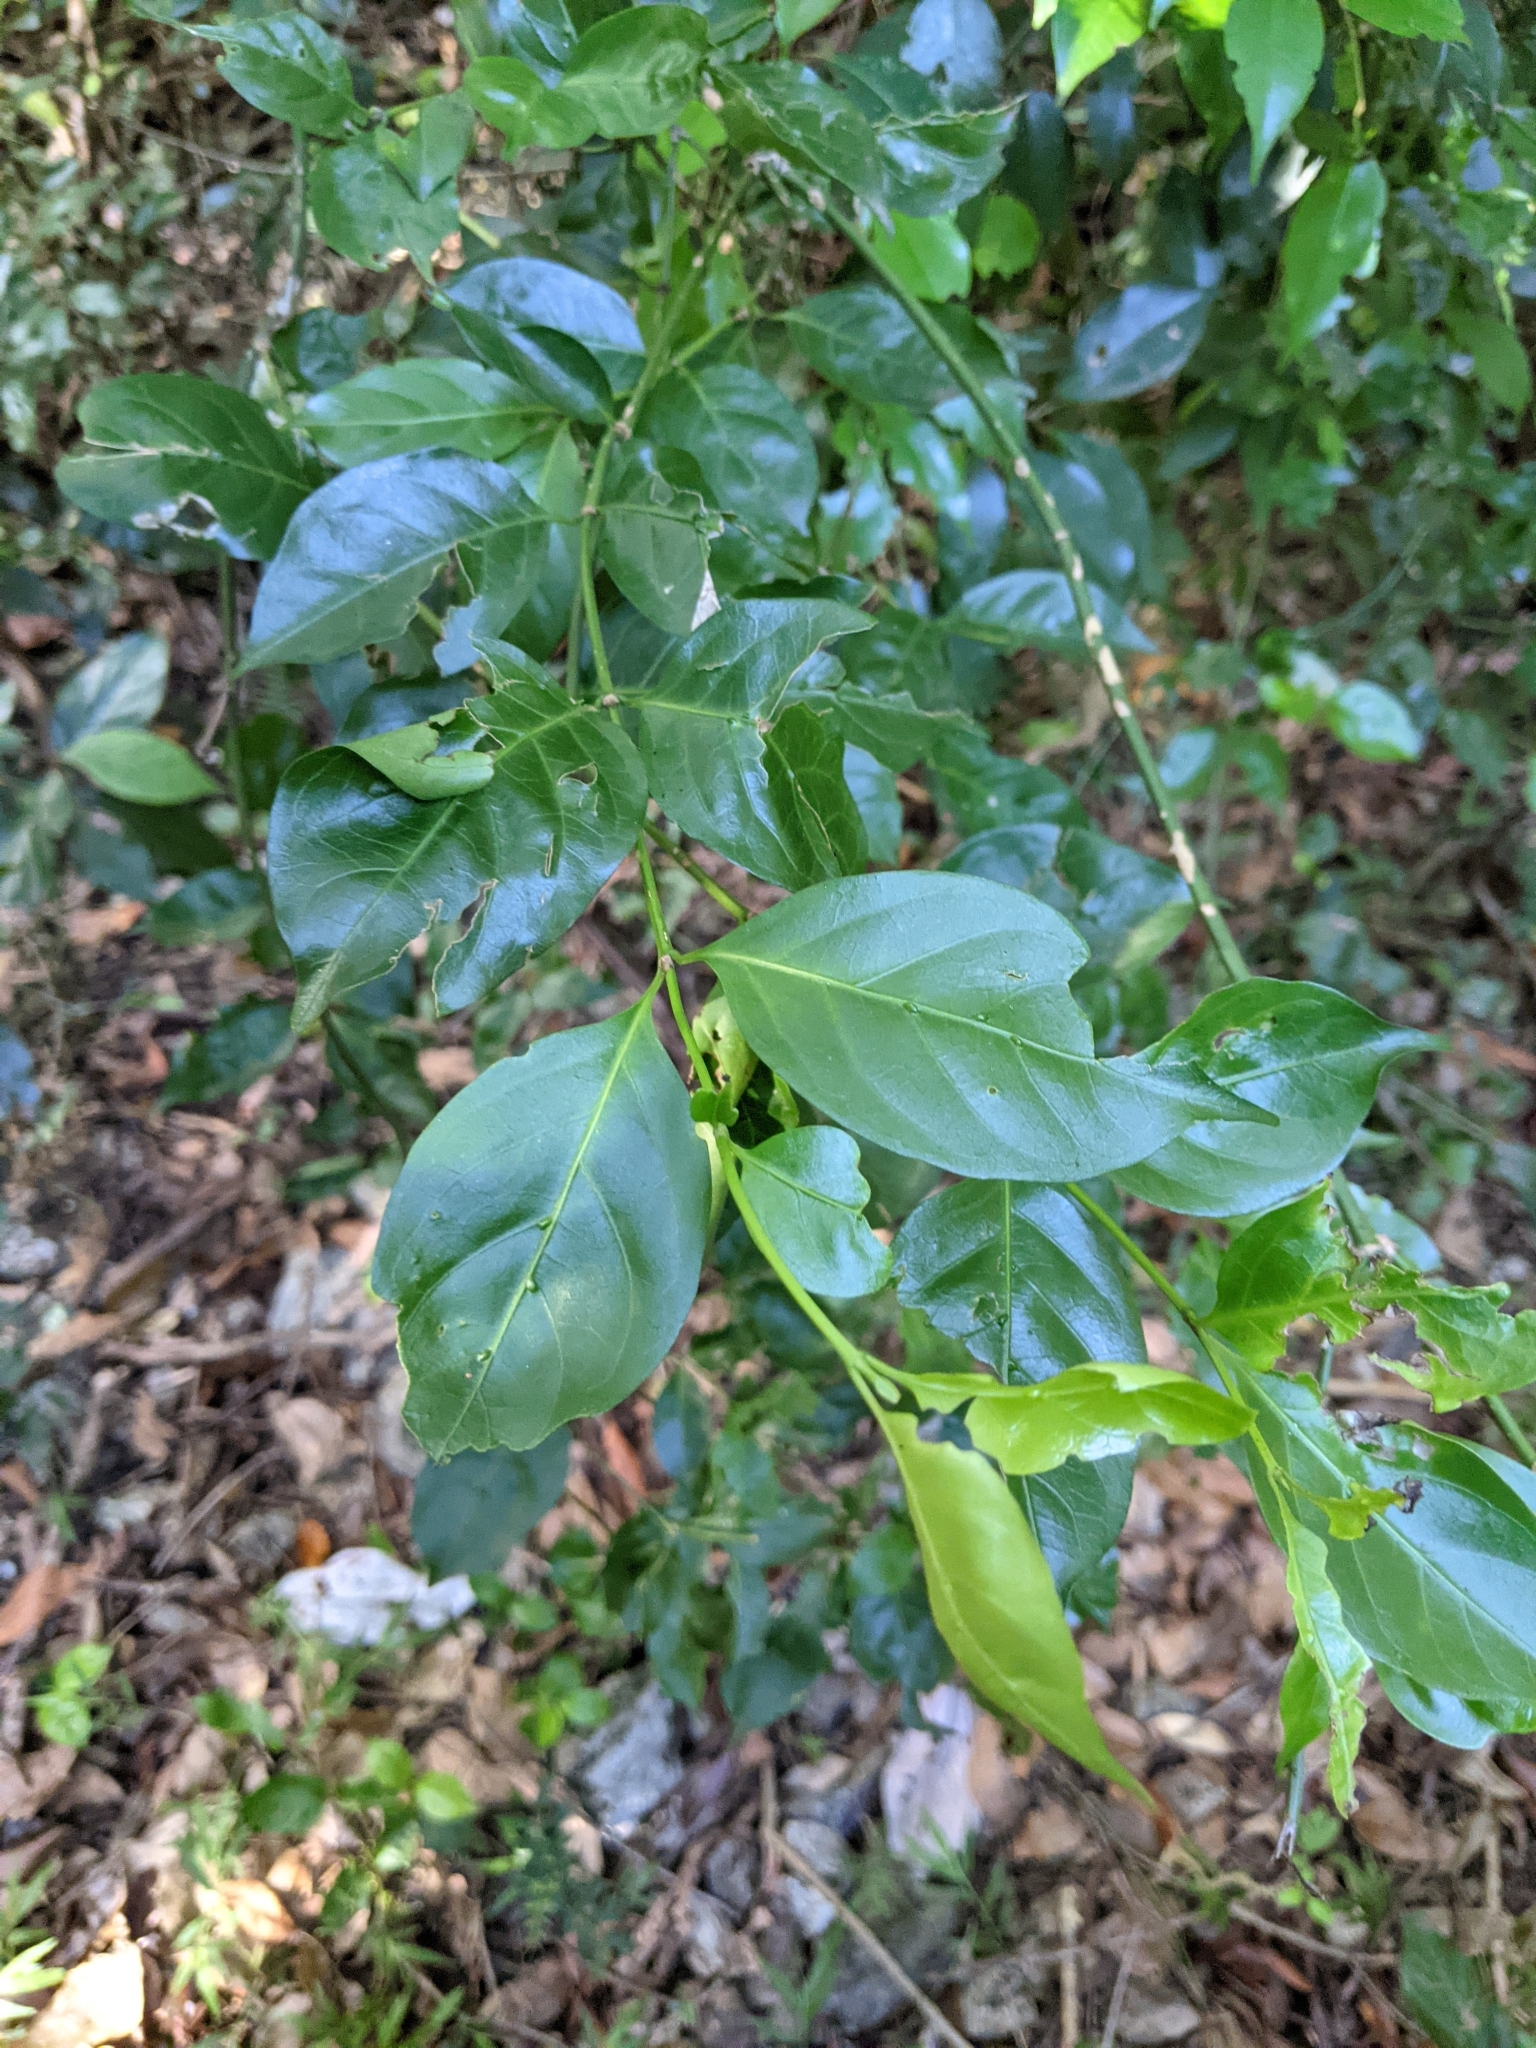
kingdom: Plantae
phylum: Tracheophyta
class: Magnoliopsida
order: Gentianales
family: Rubiaceae
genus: Gynochthodes
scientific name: Gynochthodes jasminoides
